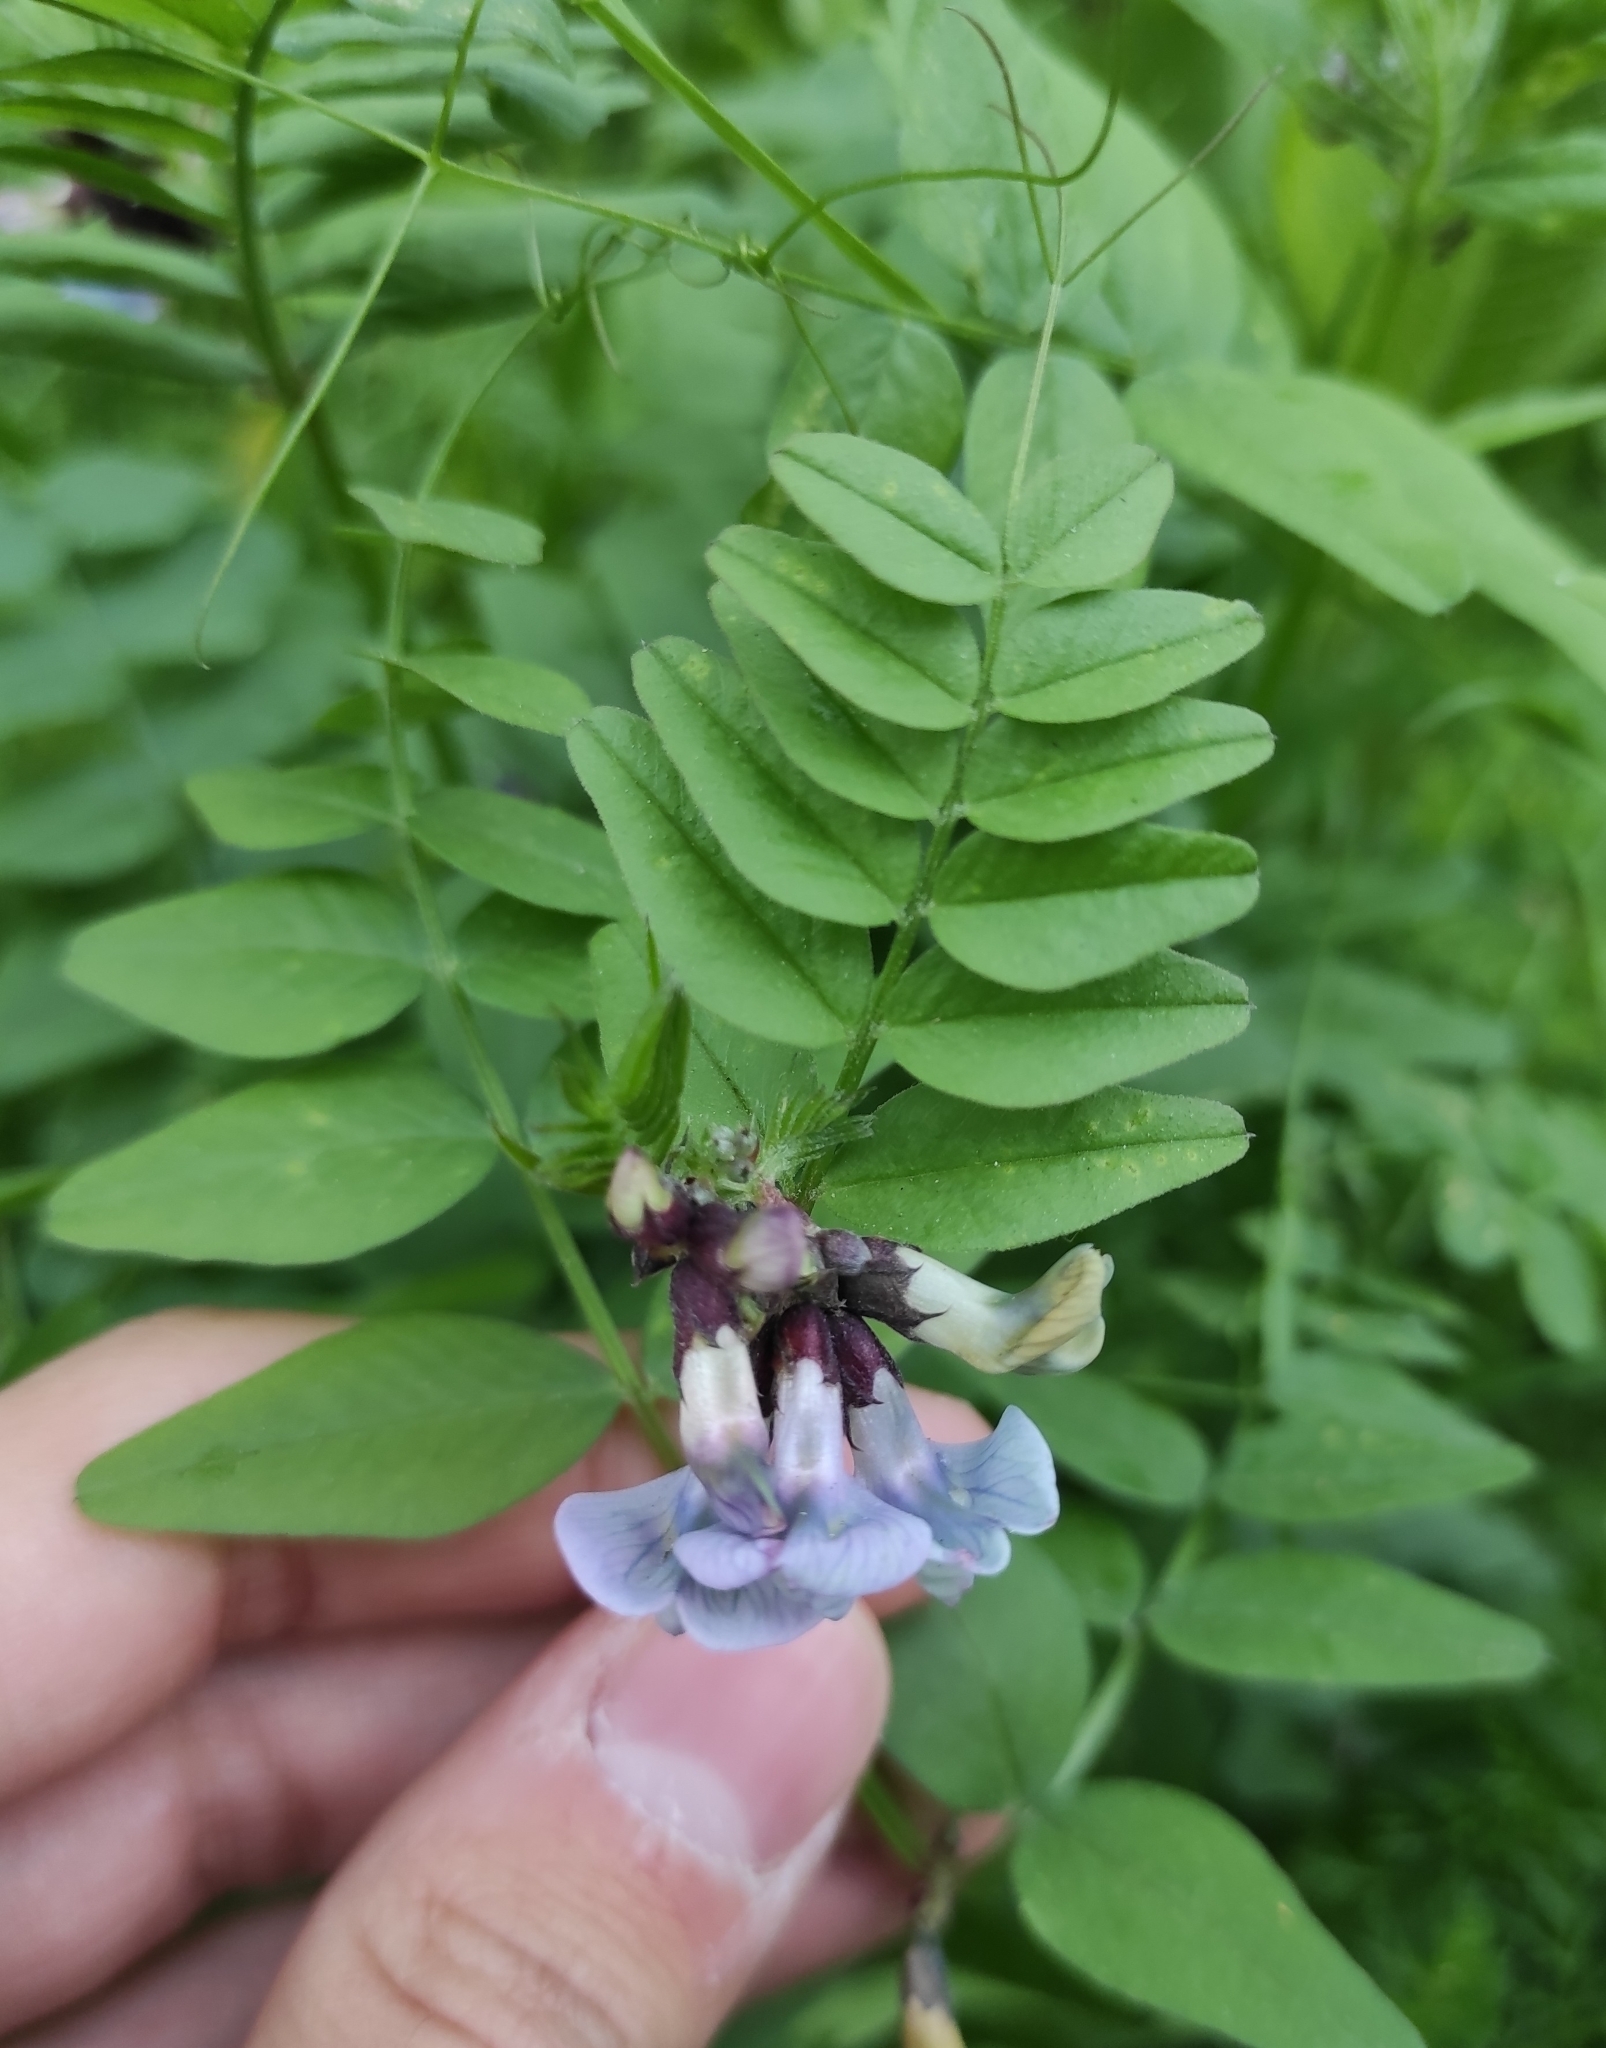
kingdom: Plantae
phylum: Tracheophyta
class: Magnoliopsida
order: Fabales
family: Fabaceae
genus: Vicia
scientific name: Vicia sepium
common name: Bush vetch
